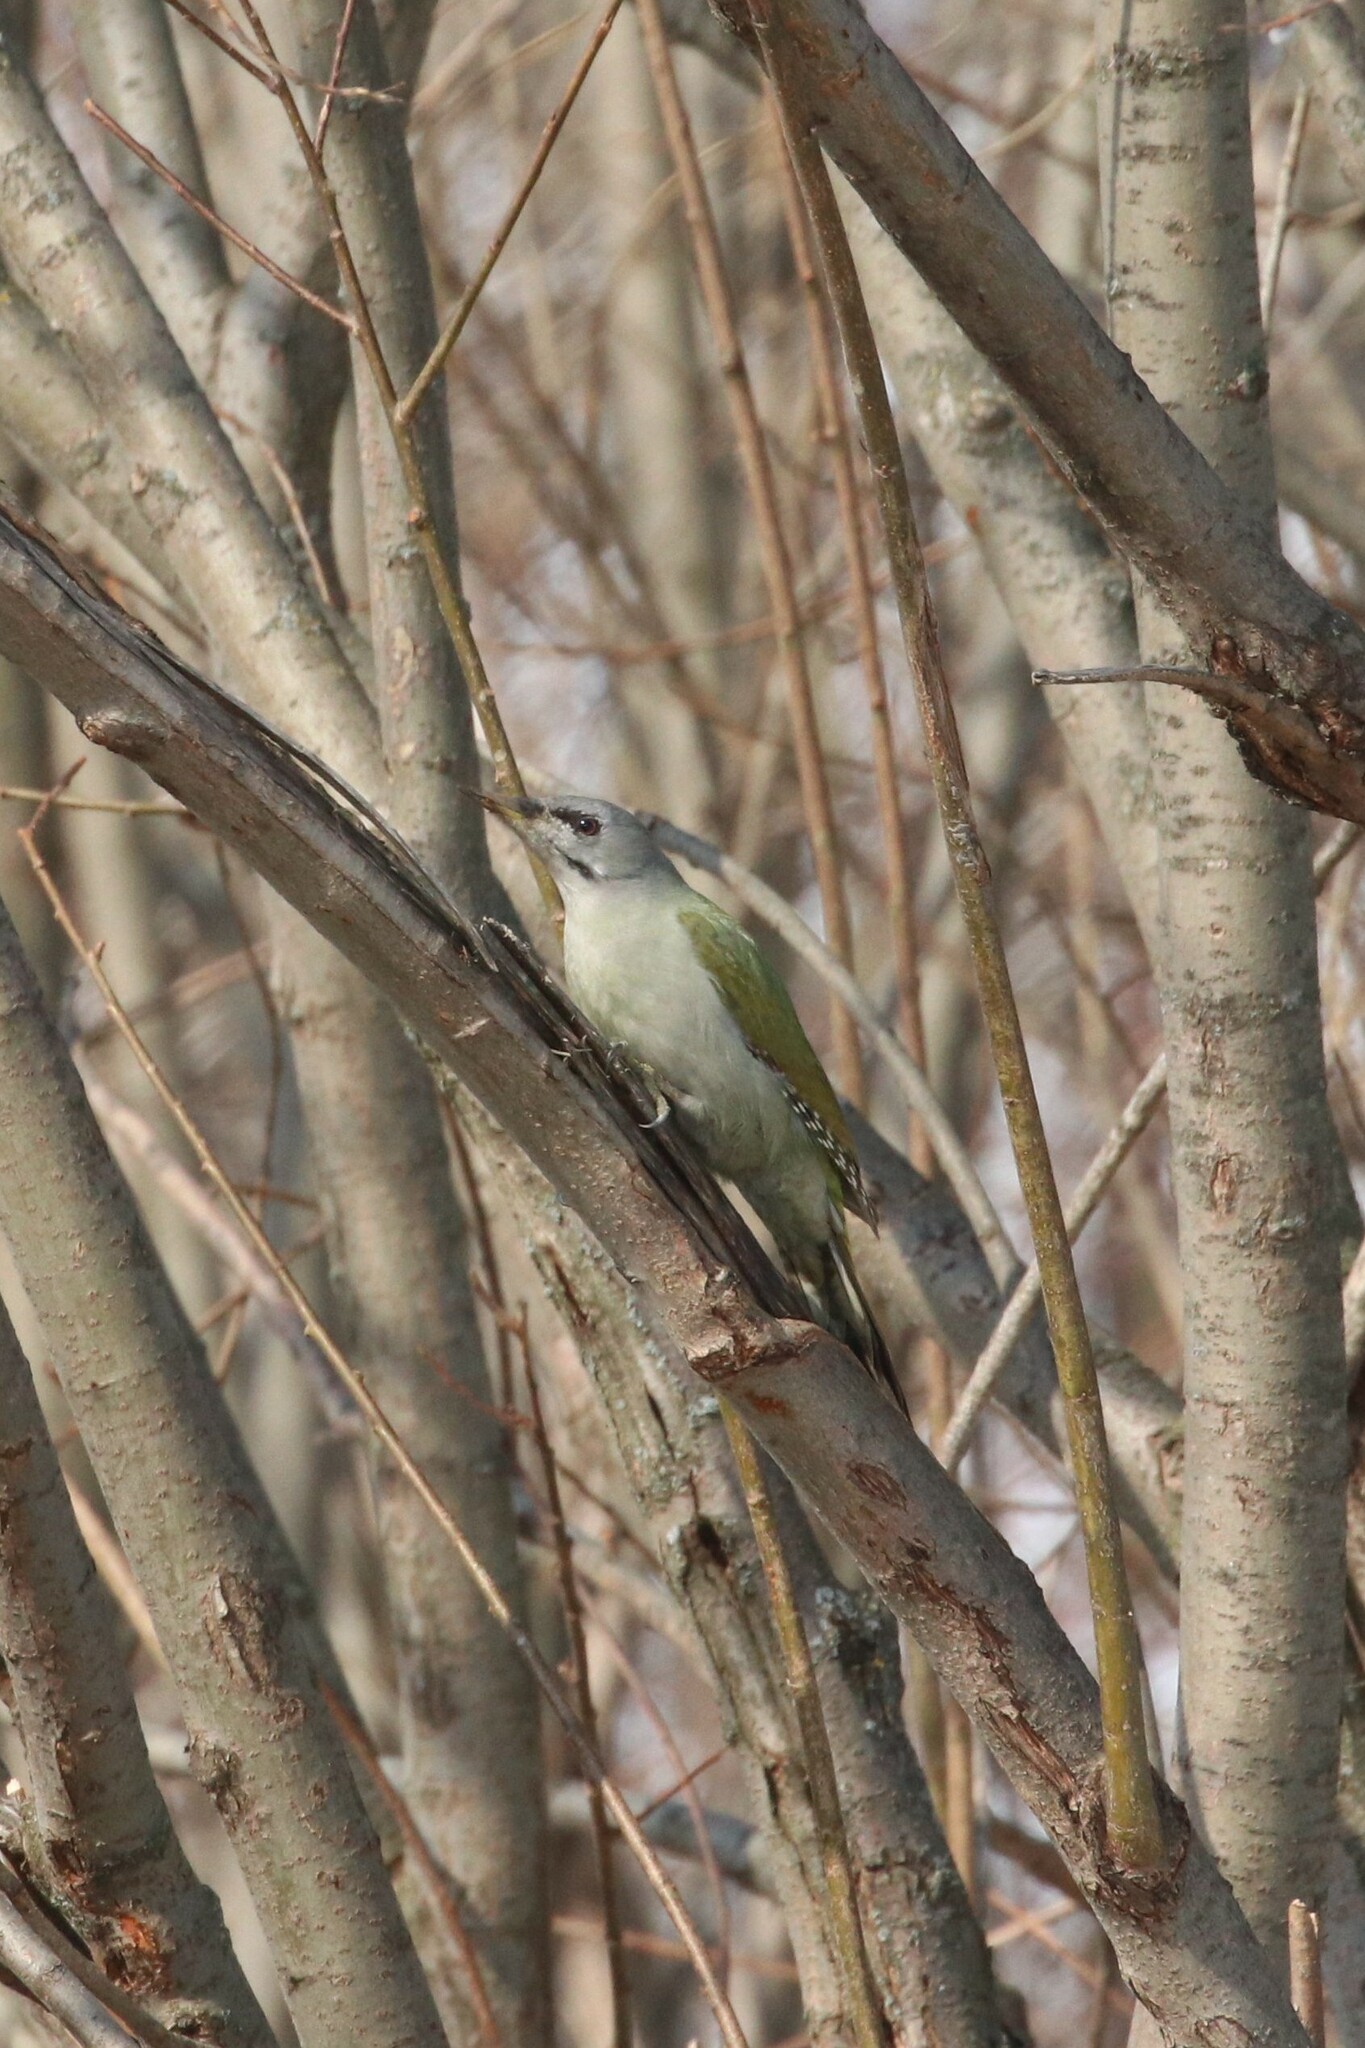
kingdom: Animalia
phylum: Chordata
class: Aves
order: Piciformes
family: Picidae
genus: Picus
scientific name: Picus canus
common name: Grey-headed woodpecker
